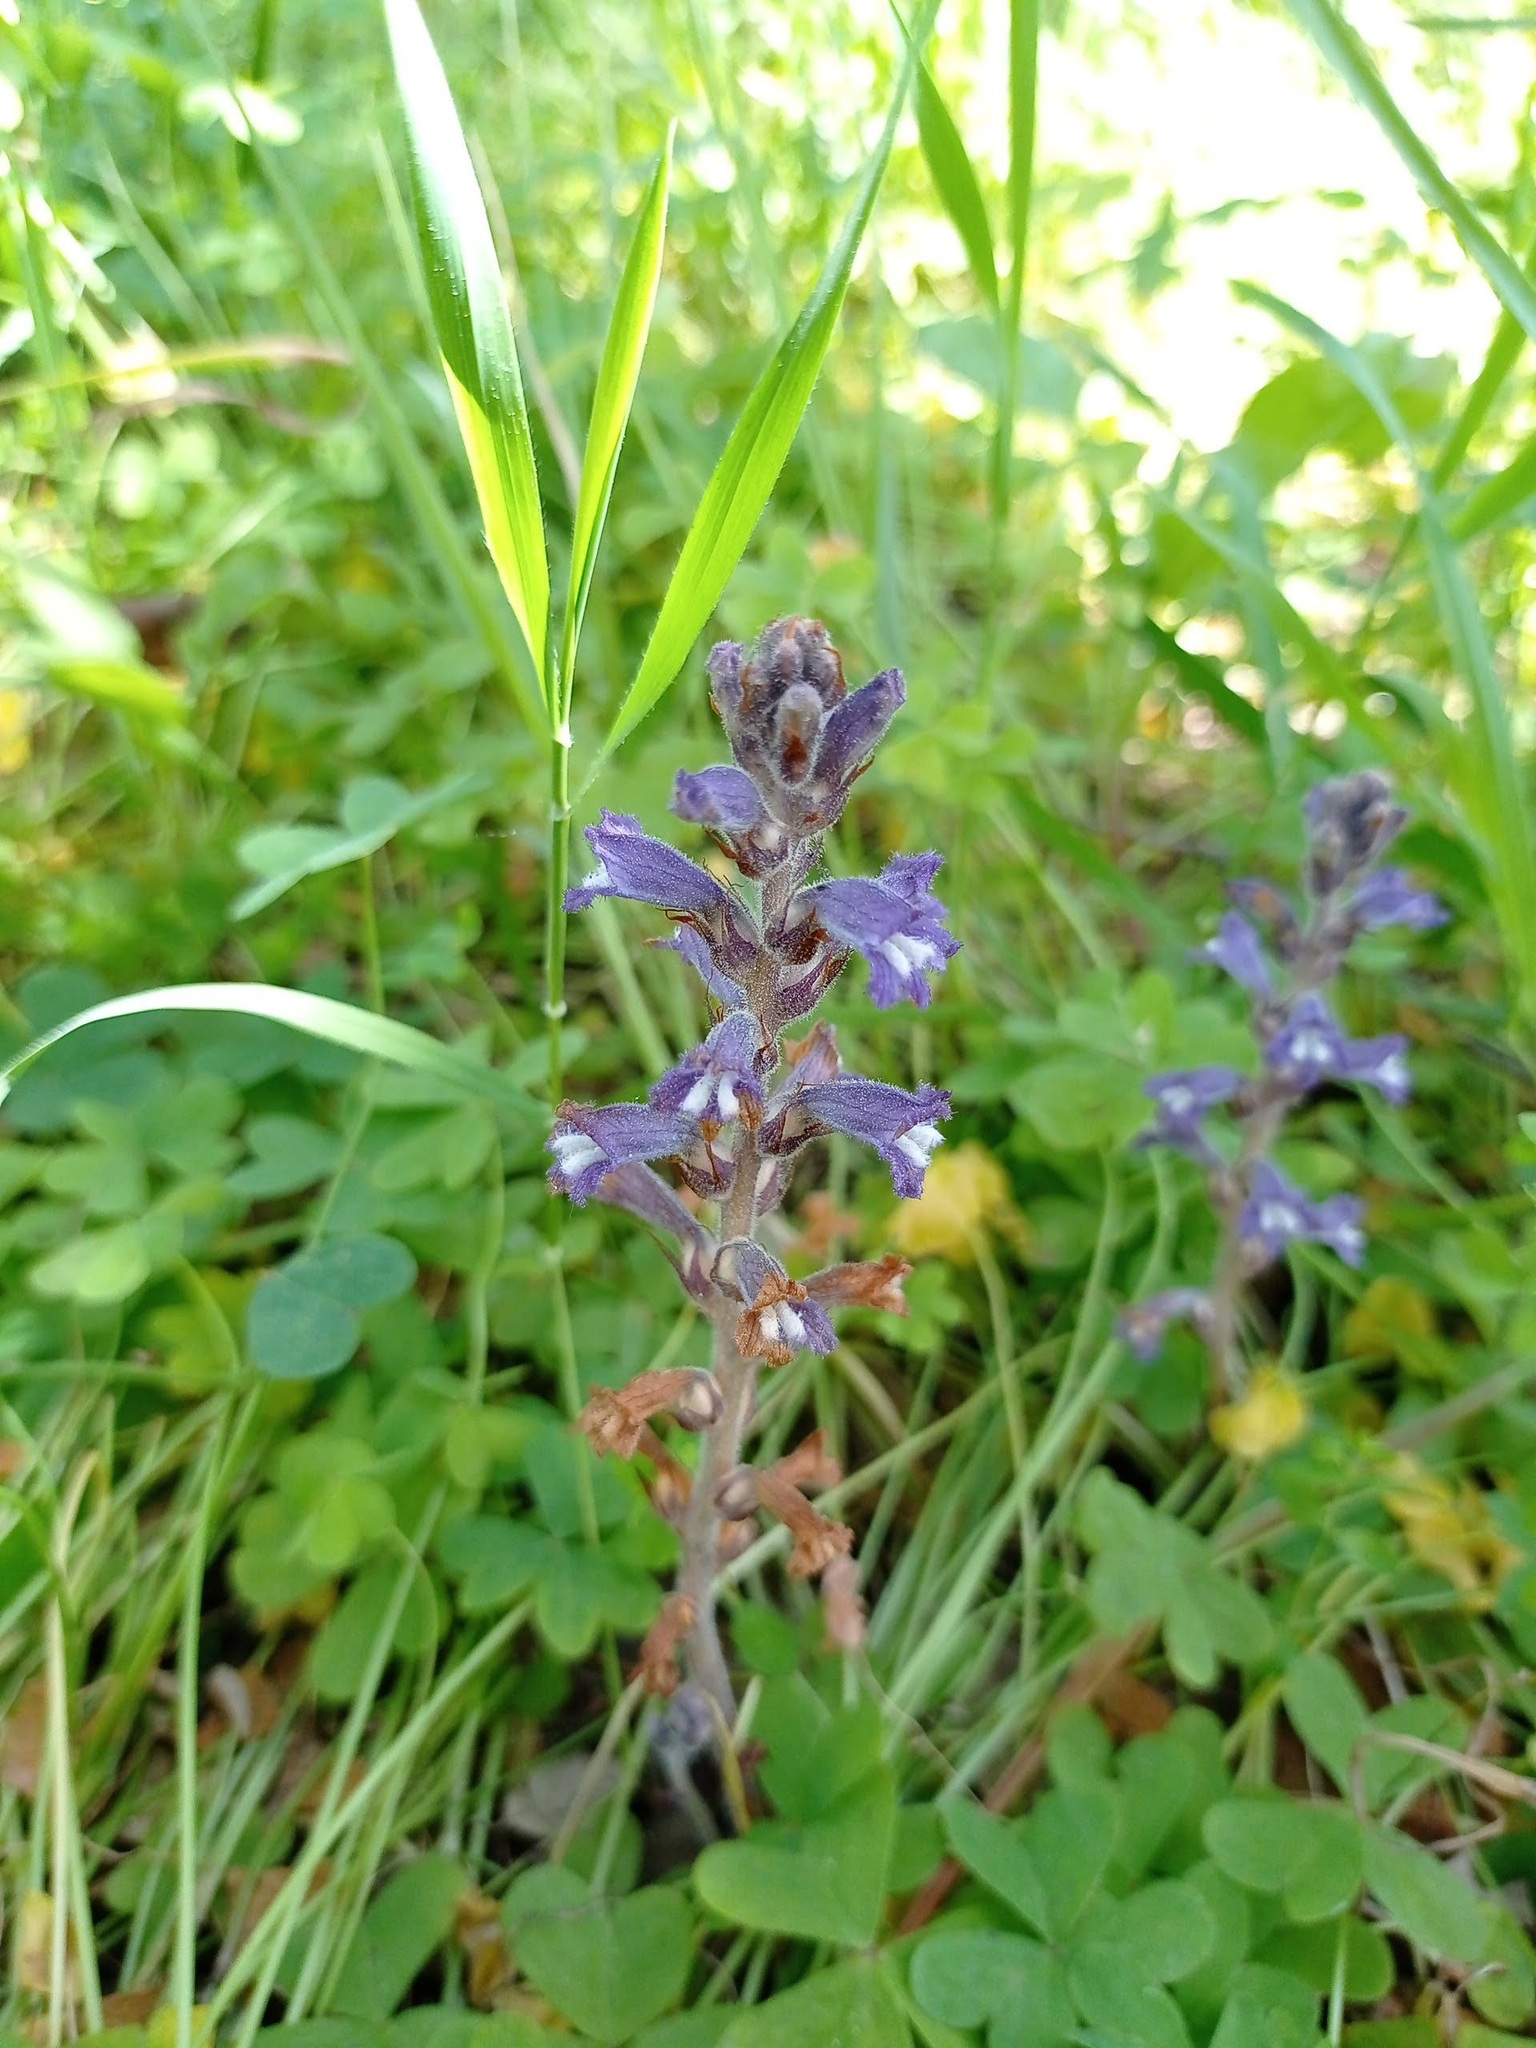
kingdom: Plantae
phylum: Tracheophyta
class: Magnoliopsida
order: Lamiales
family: Orobanchaceae
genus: Phelipanche
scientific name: Phelipanche mutelii
